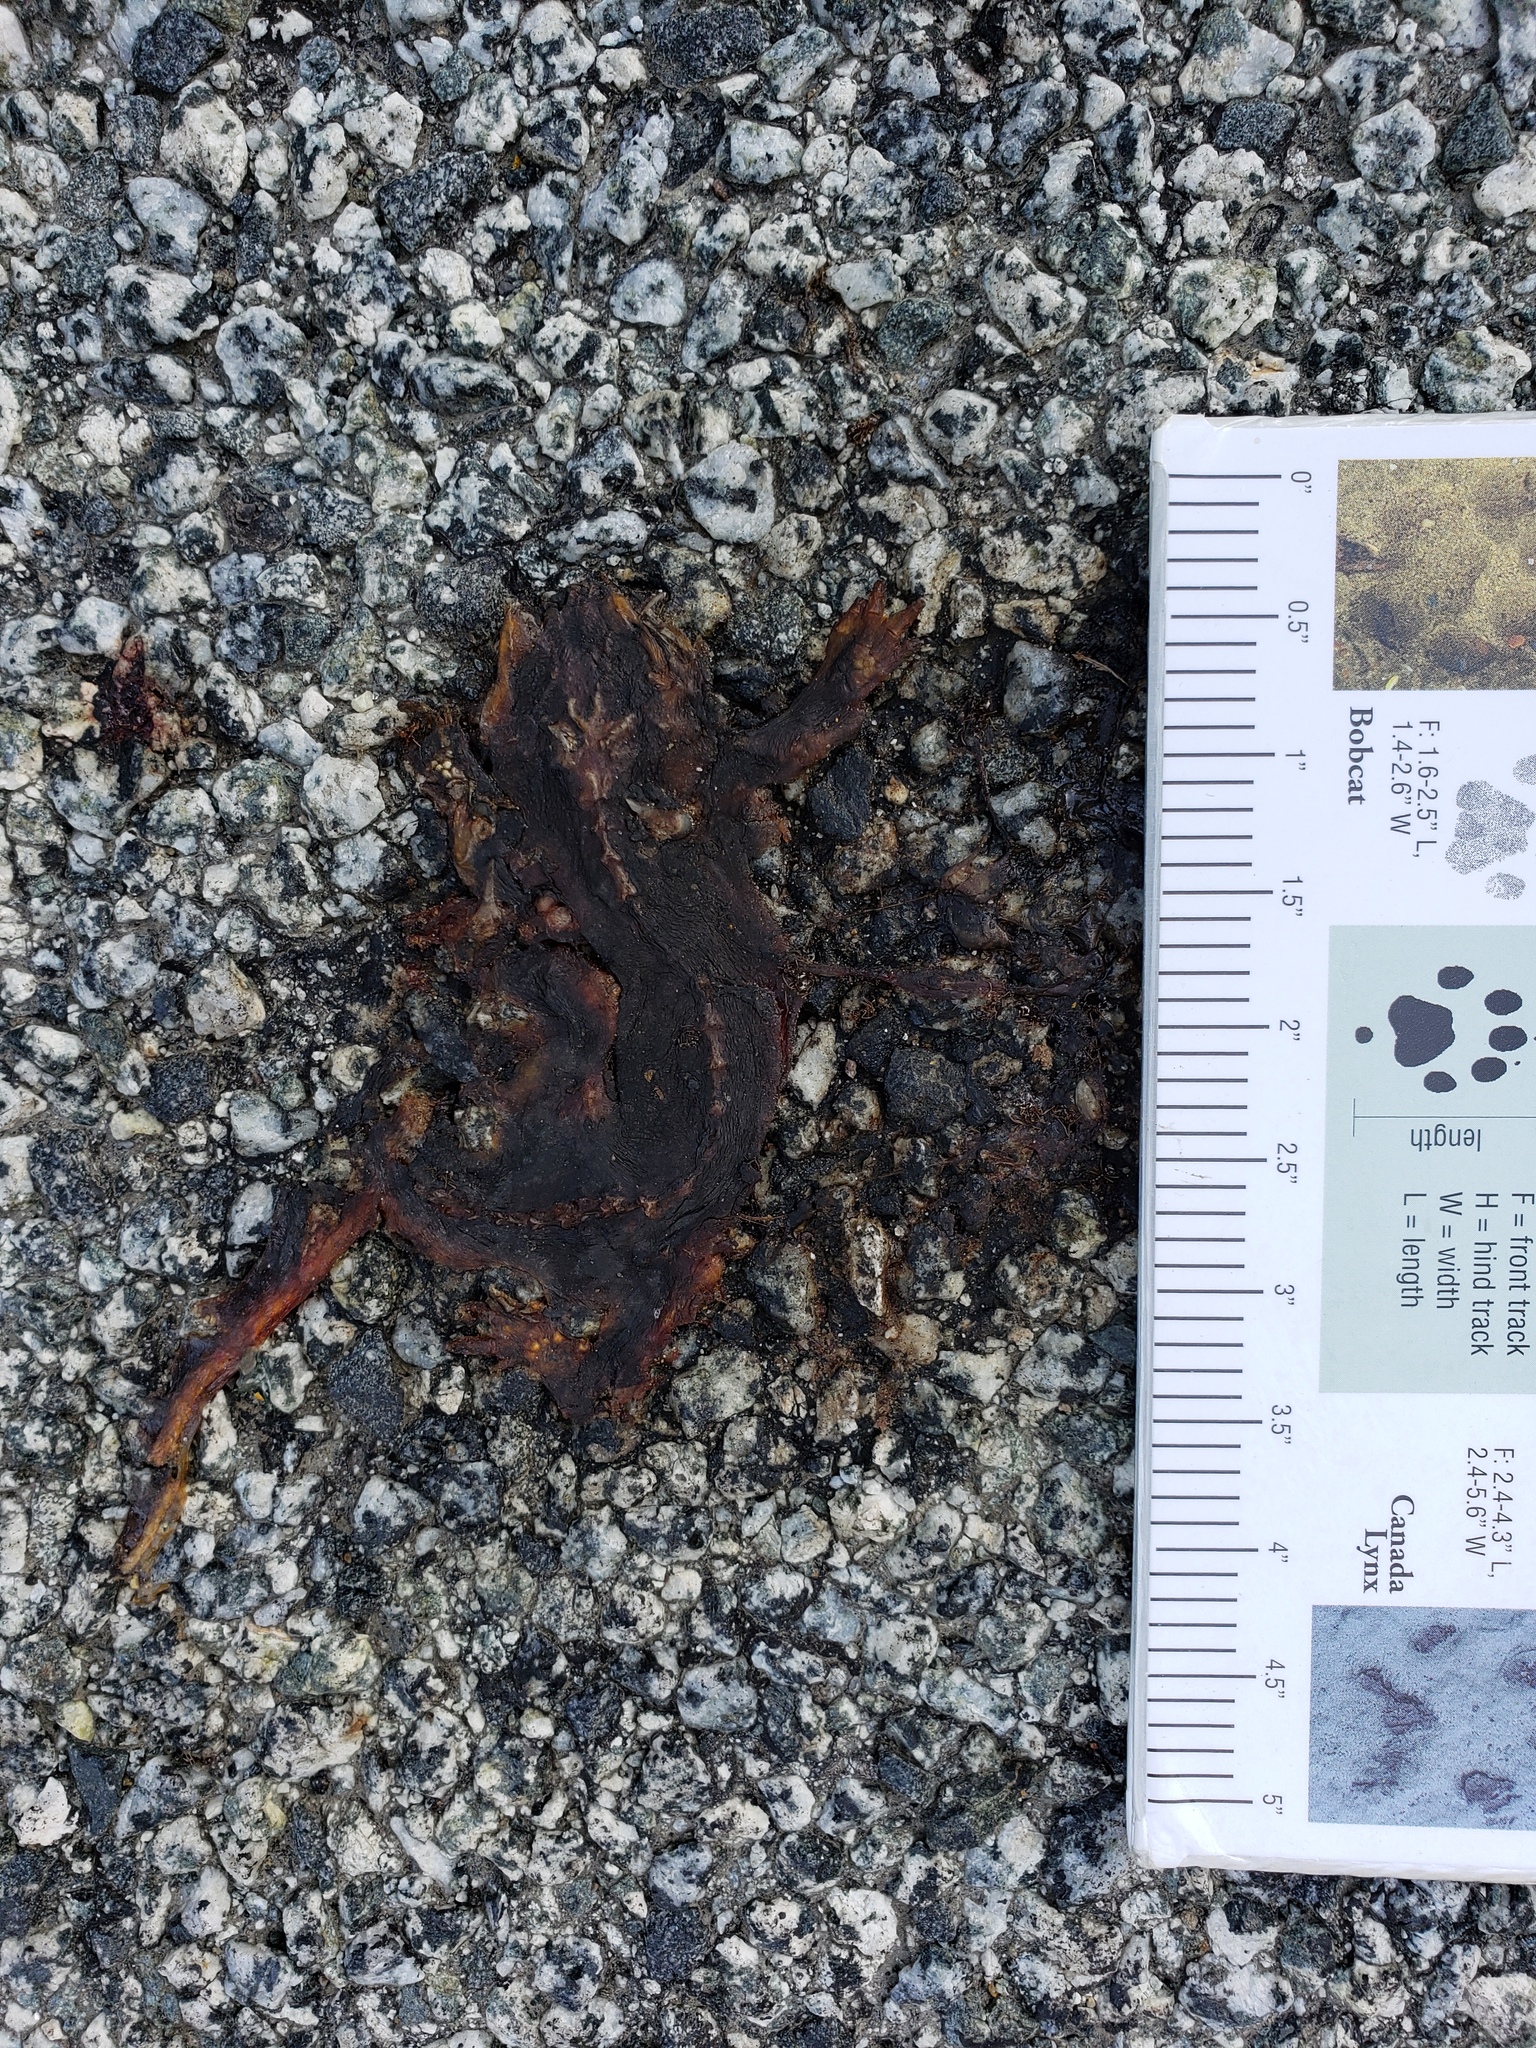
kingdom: Animalia
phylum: Chordata
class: Amphibia
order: Caudata
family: Salamandridae
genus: Taricha
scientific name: Taricha
